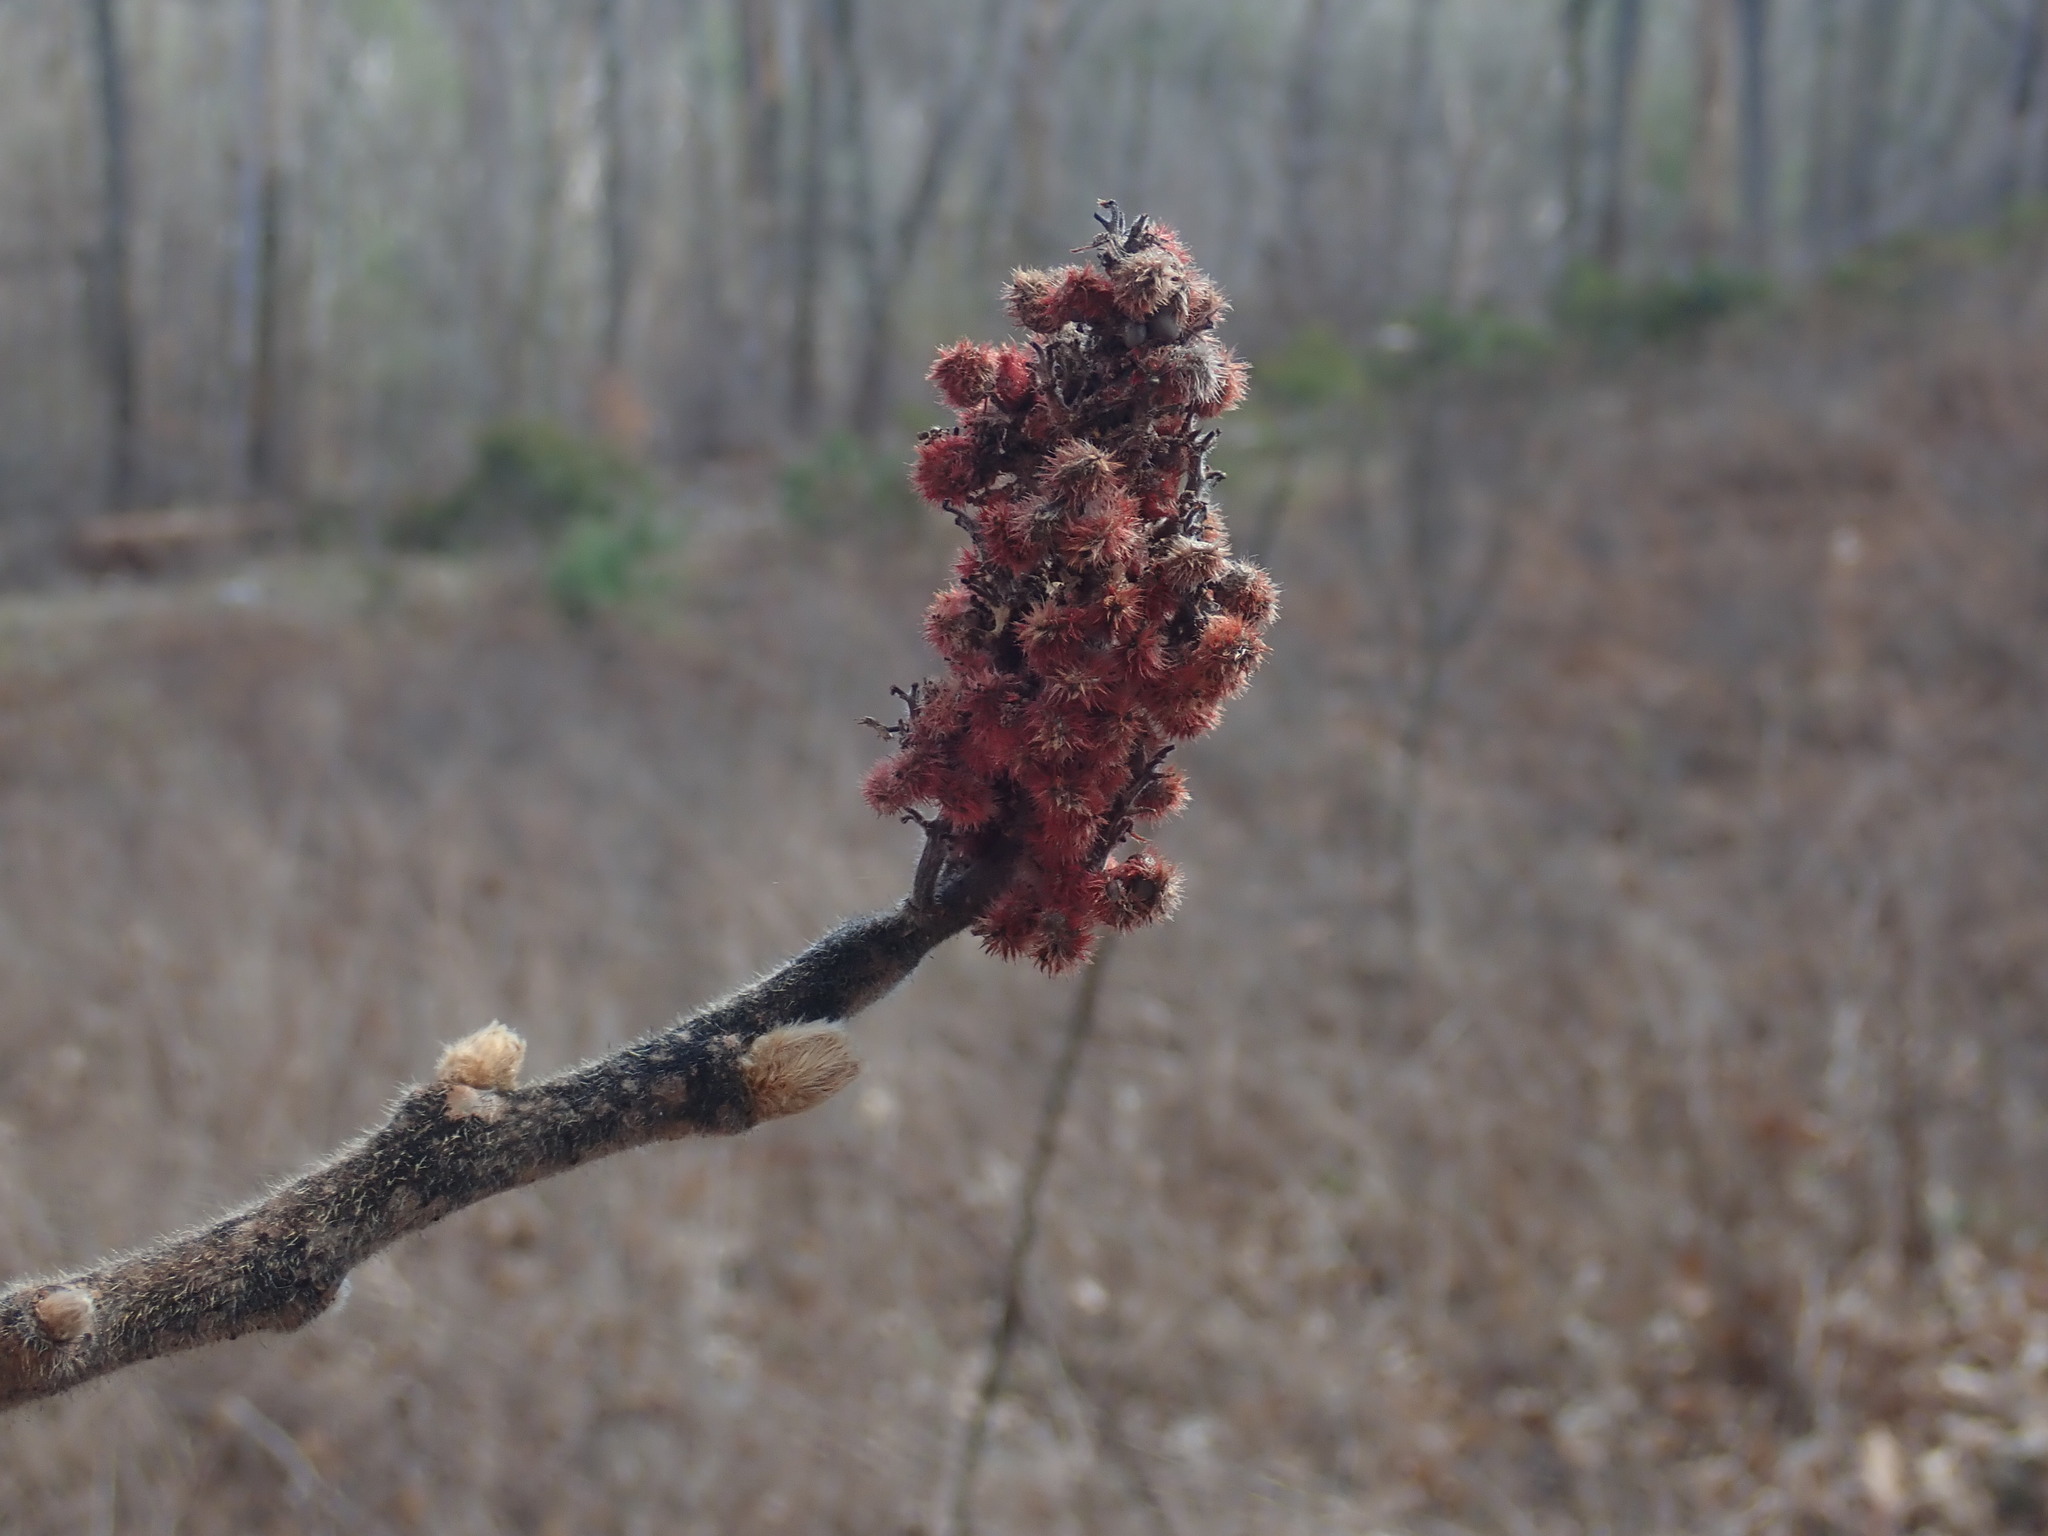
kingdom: Plantae
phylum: Tracheophyta
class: Magnoliopsida
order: Sapindales
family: Anacardiaceae
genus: Rhus
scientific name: Rhus typhina
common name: Staghorn sumac
